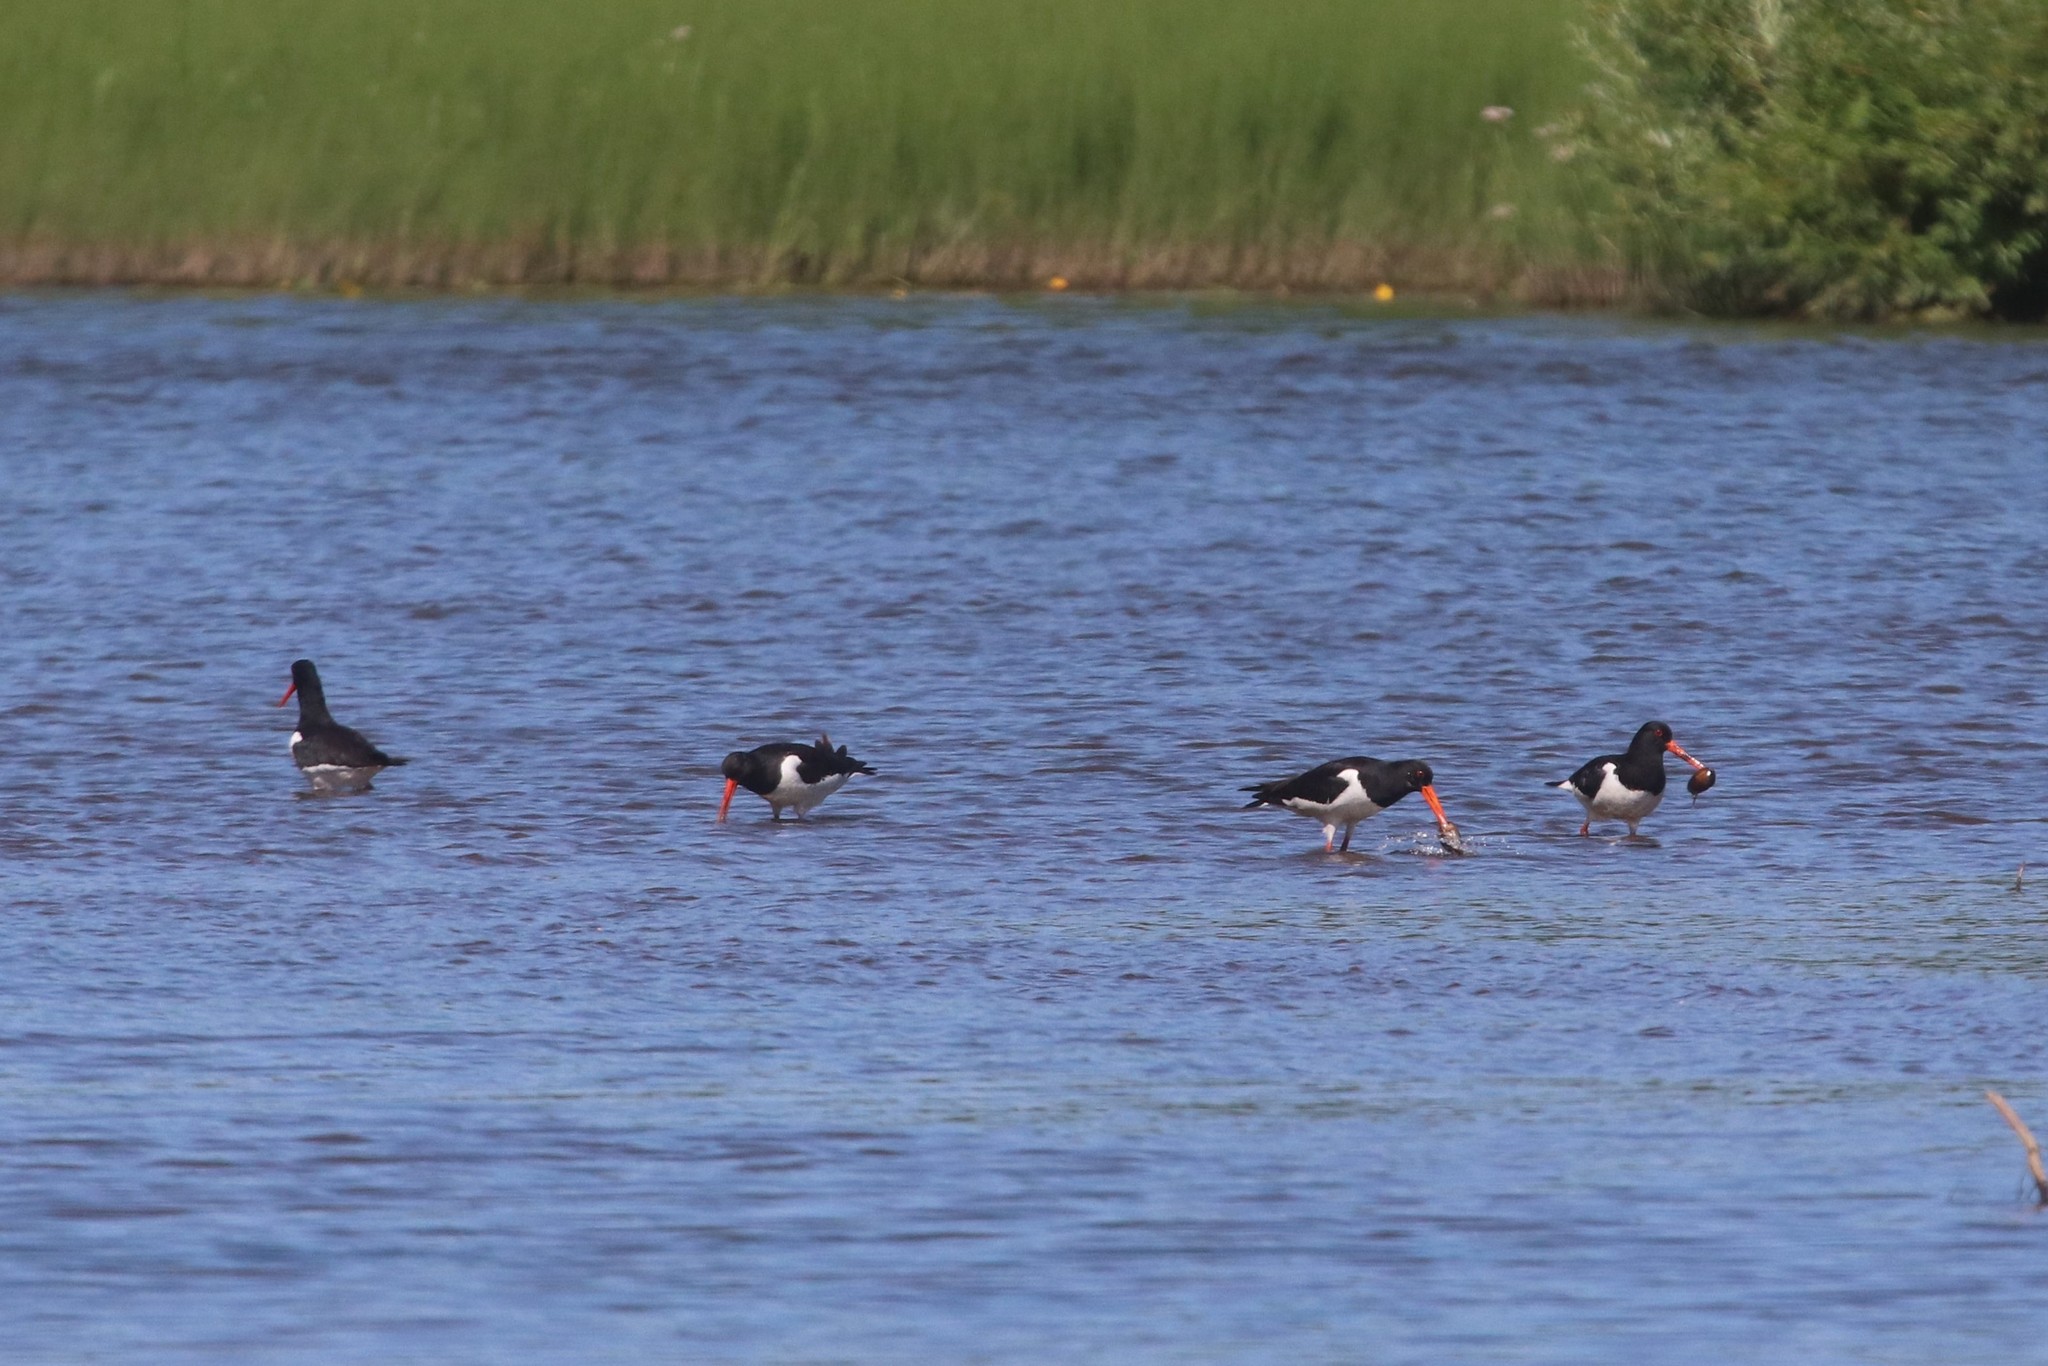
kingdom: Animalia
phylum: Chordata
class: Aves
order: Charadriiformes
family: Haematopodidae
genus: Haematopus
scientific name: Haematopus ostralegus
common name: Eurasian oystercatcher
